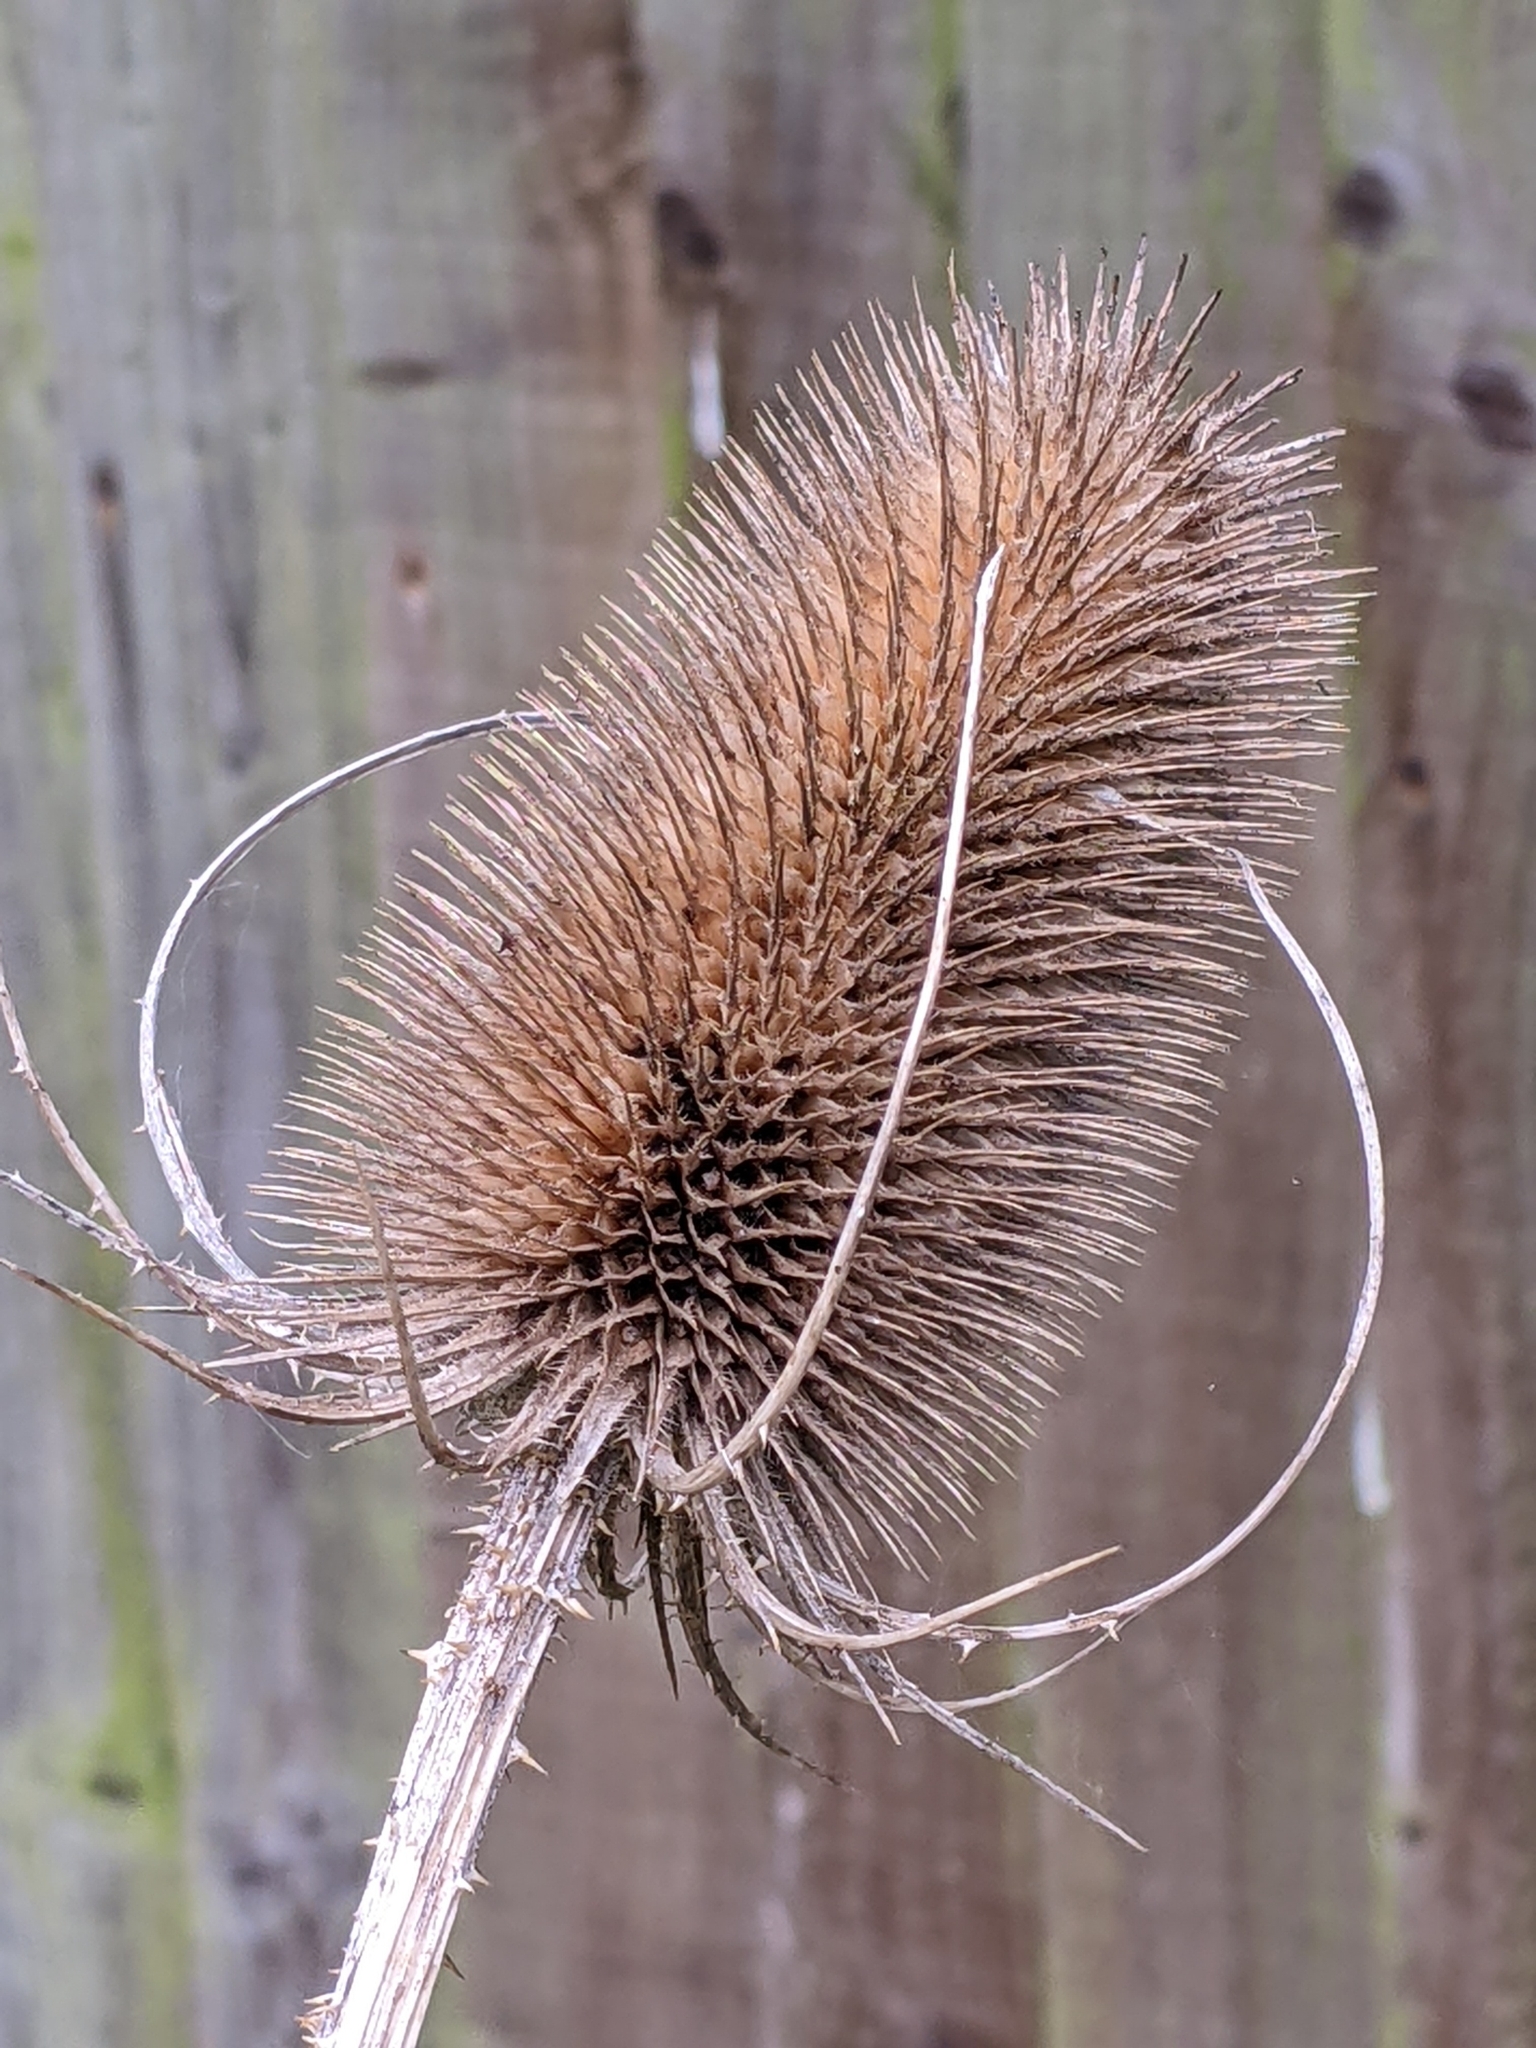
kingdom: Plantae
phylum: Tracheophyta
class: Magnoliopsida
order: Dipsacales
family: Caprifoliaceae
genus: Dipsacus
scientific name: Dipsacus fullonum
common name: Teasel
